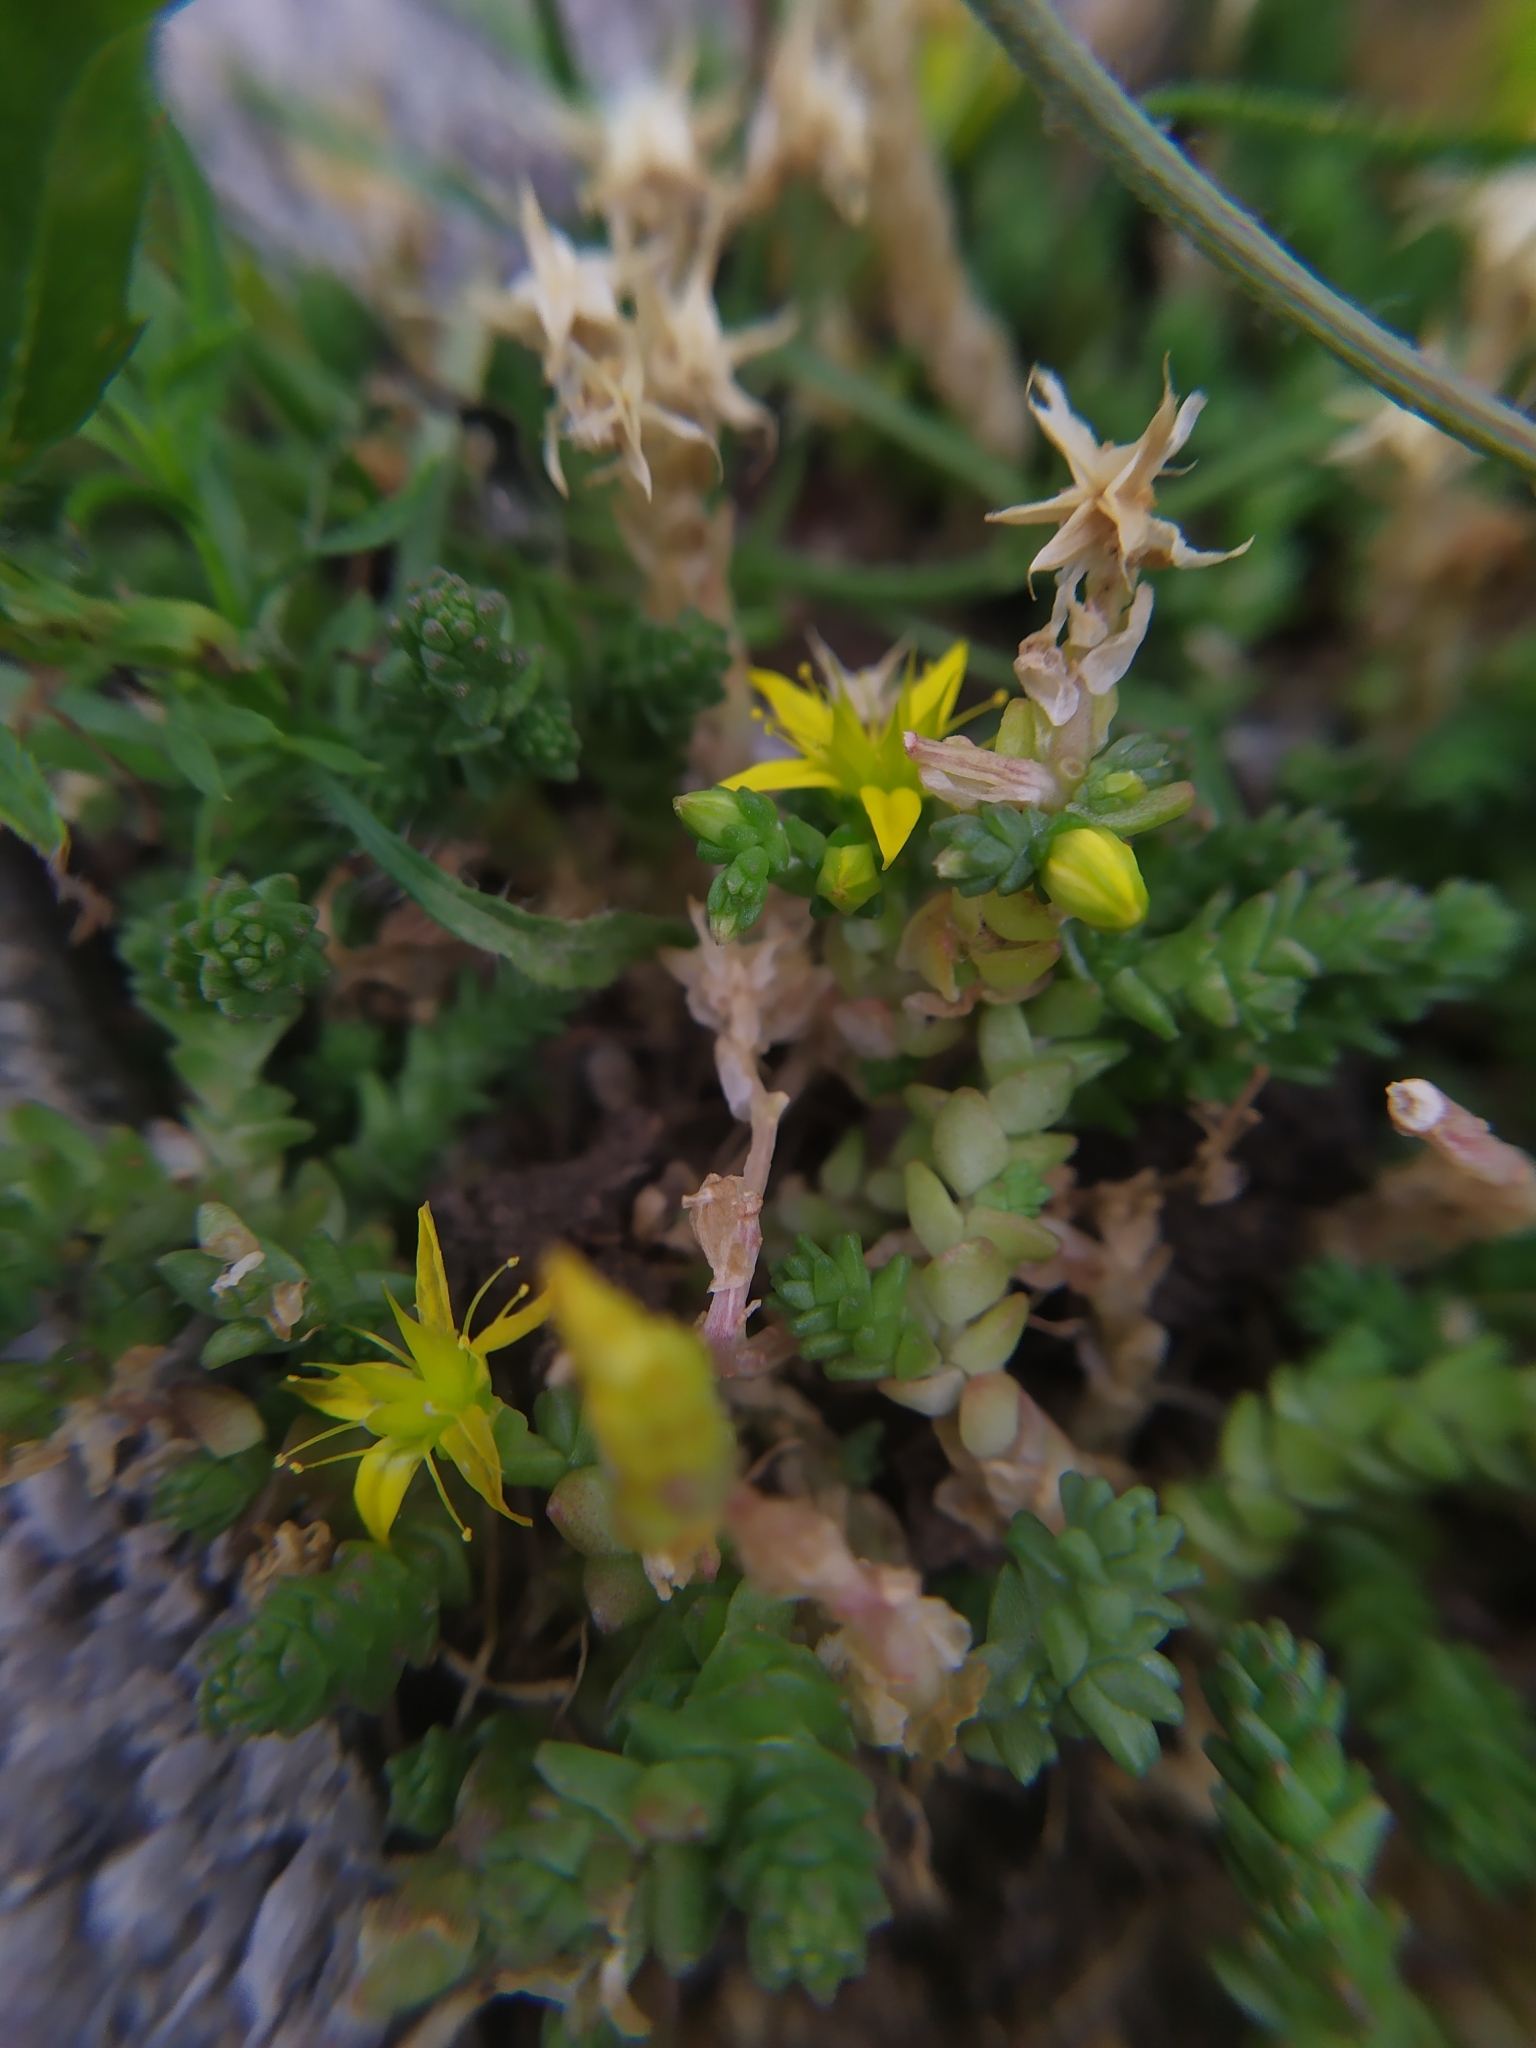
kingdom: Plantae
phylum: Tracheophyta
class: Magnoliopsida
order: Saxifragales
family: Crassulaceae
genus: Sedum
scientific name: Sedum acre
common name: Biting stonecrop
